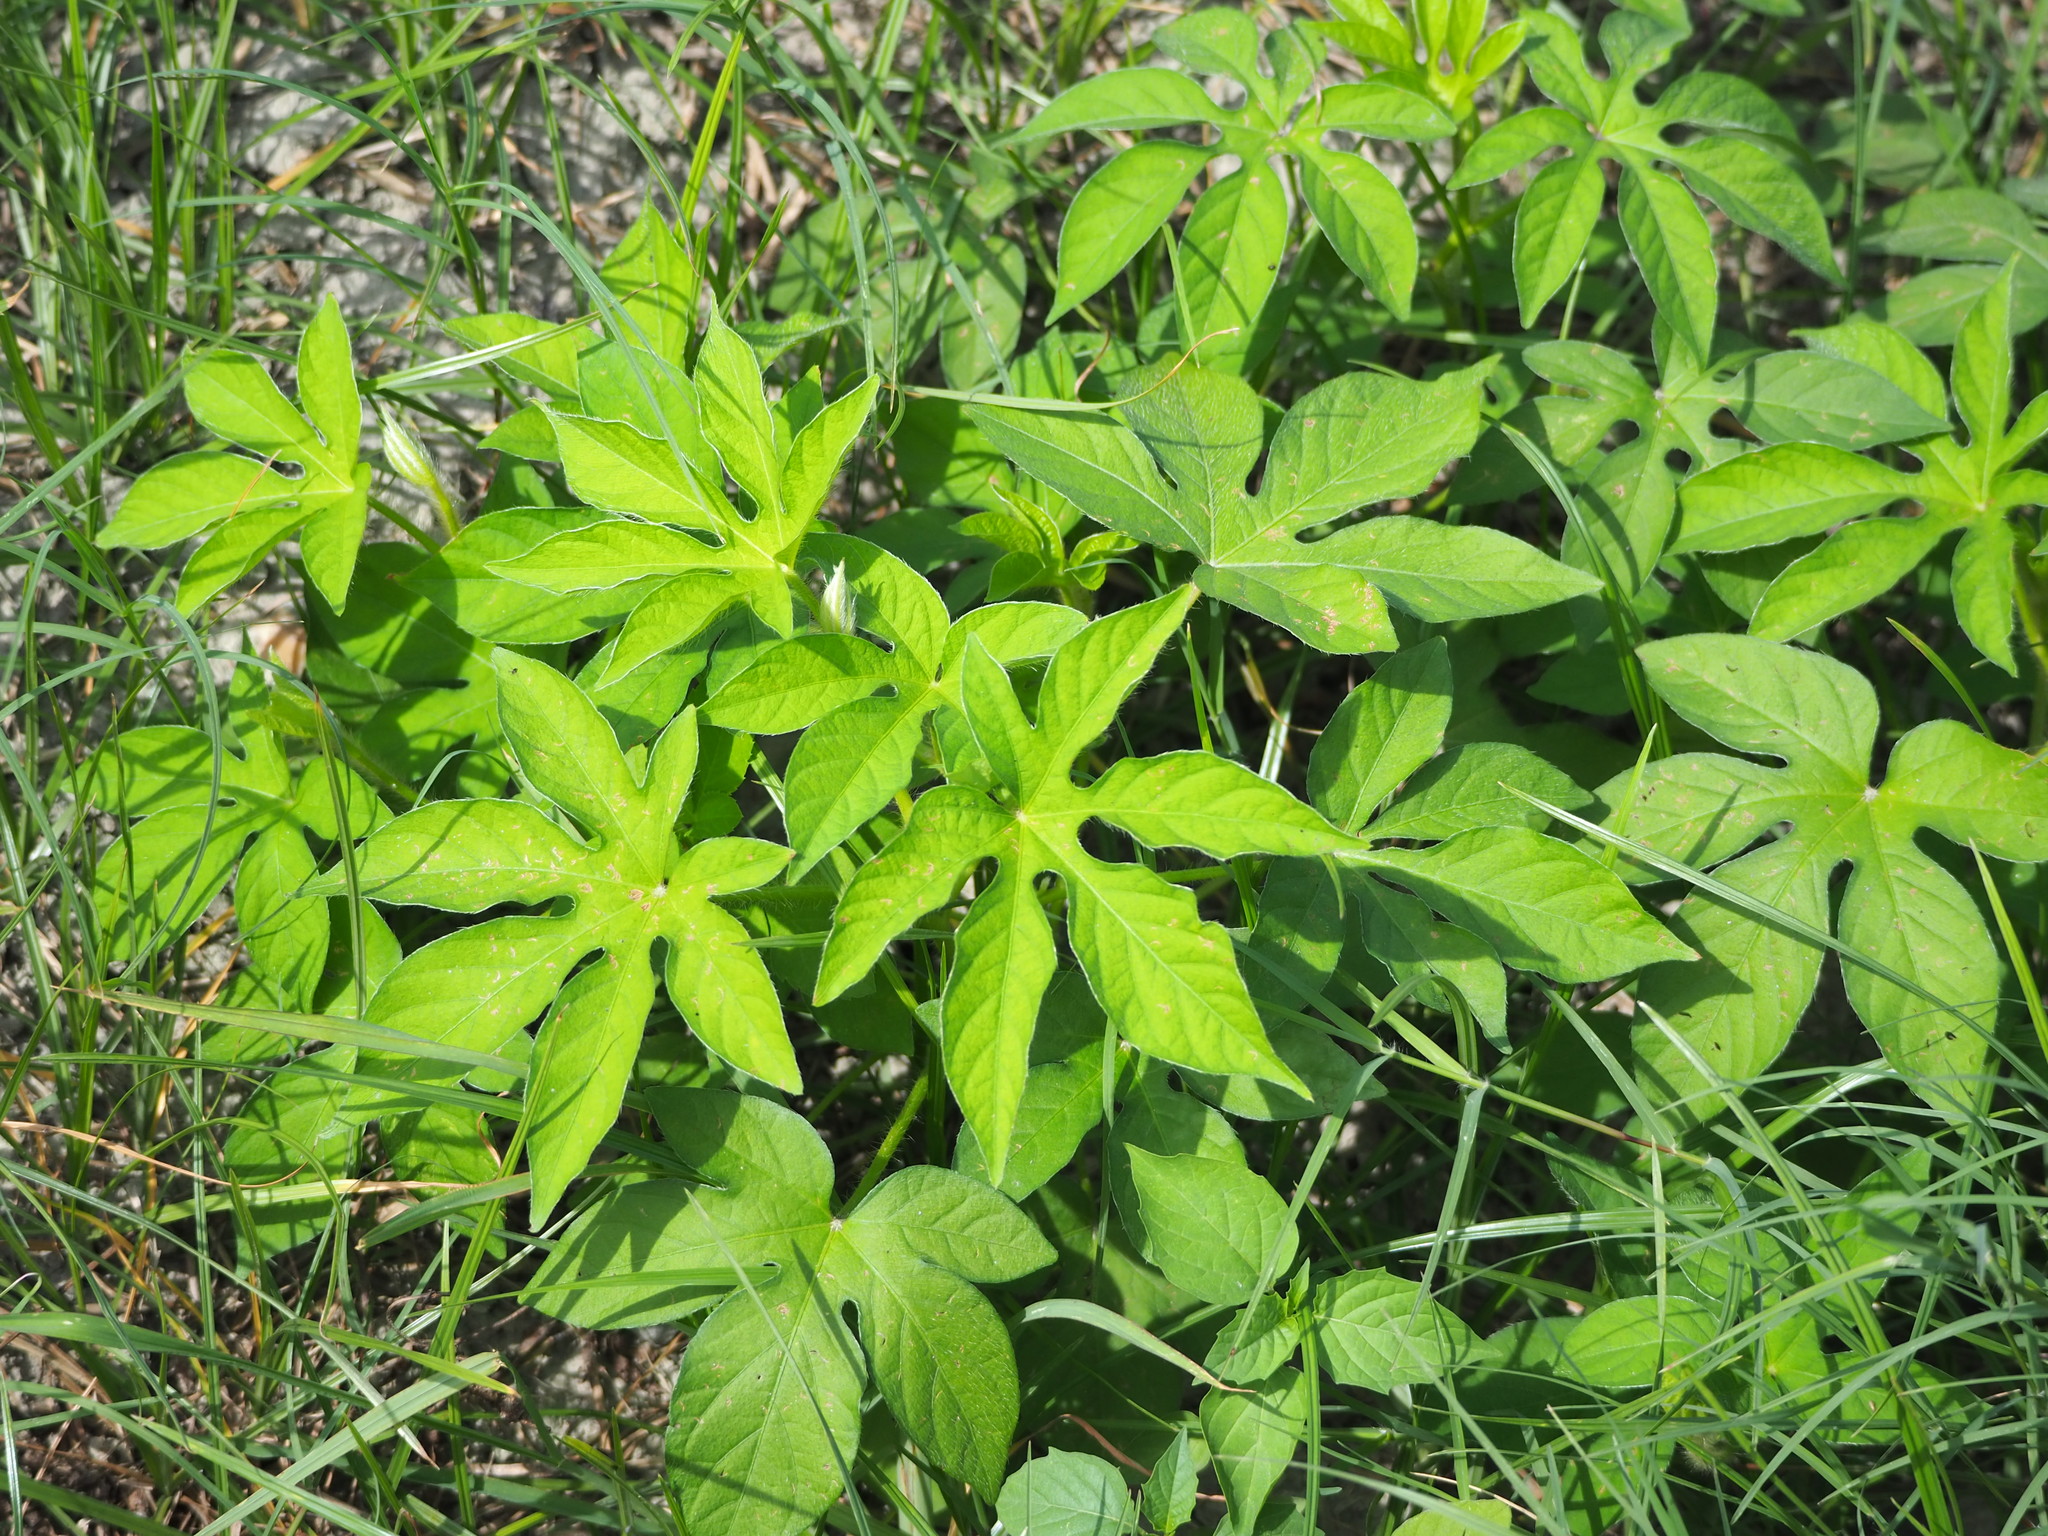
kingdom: Plantae
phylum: Tracheophyta
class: Magnoliopsida
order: Solanales
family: Convolvulaceae
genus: Ipomoea
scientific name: Ipomoea pes-tigridis
